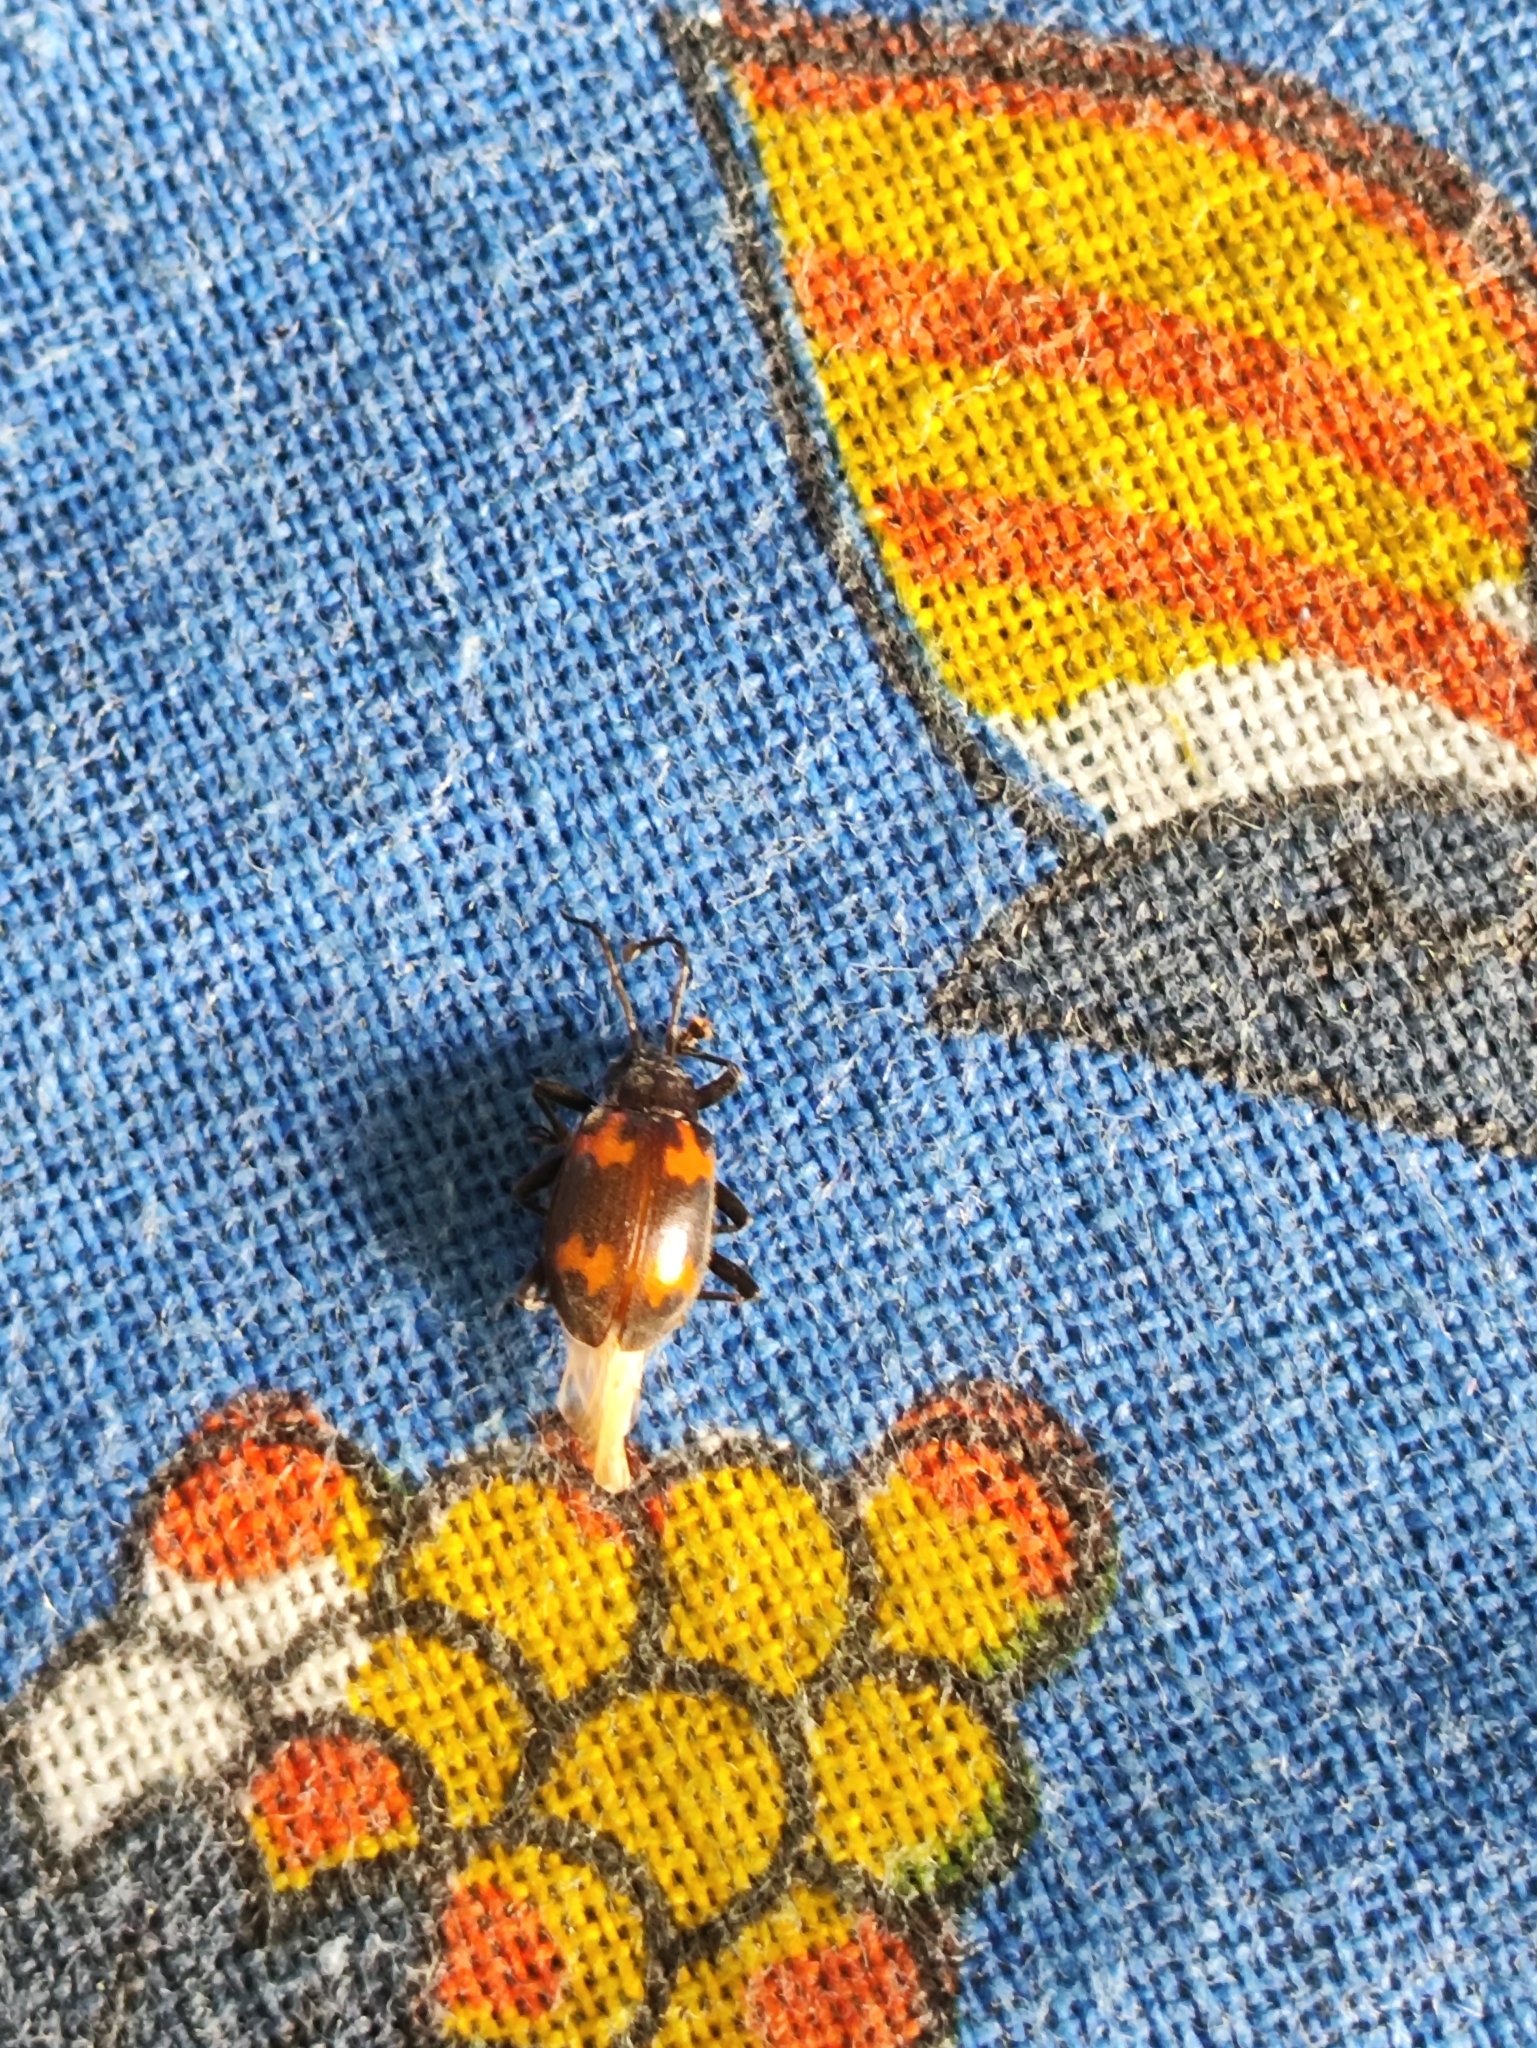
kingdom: Animalia
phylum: Arthropoda
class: Insecta
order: Coleoptera
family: Endomychidae
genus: Parindalmus
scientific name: Parindalmus
